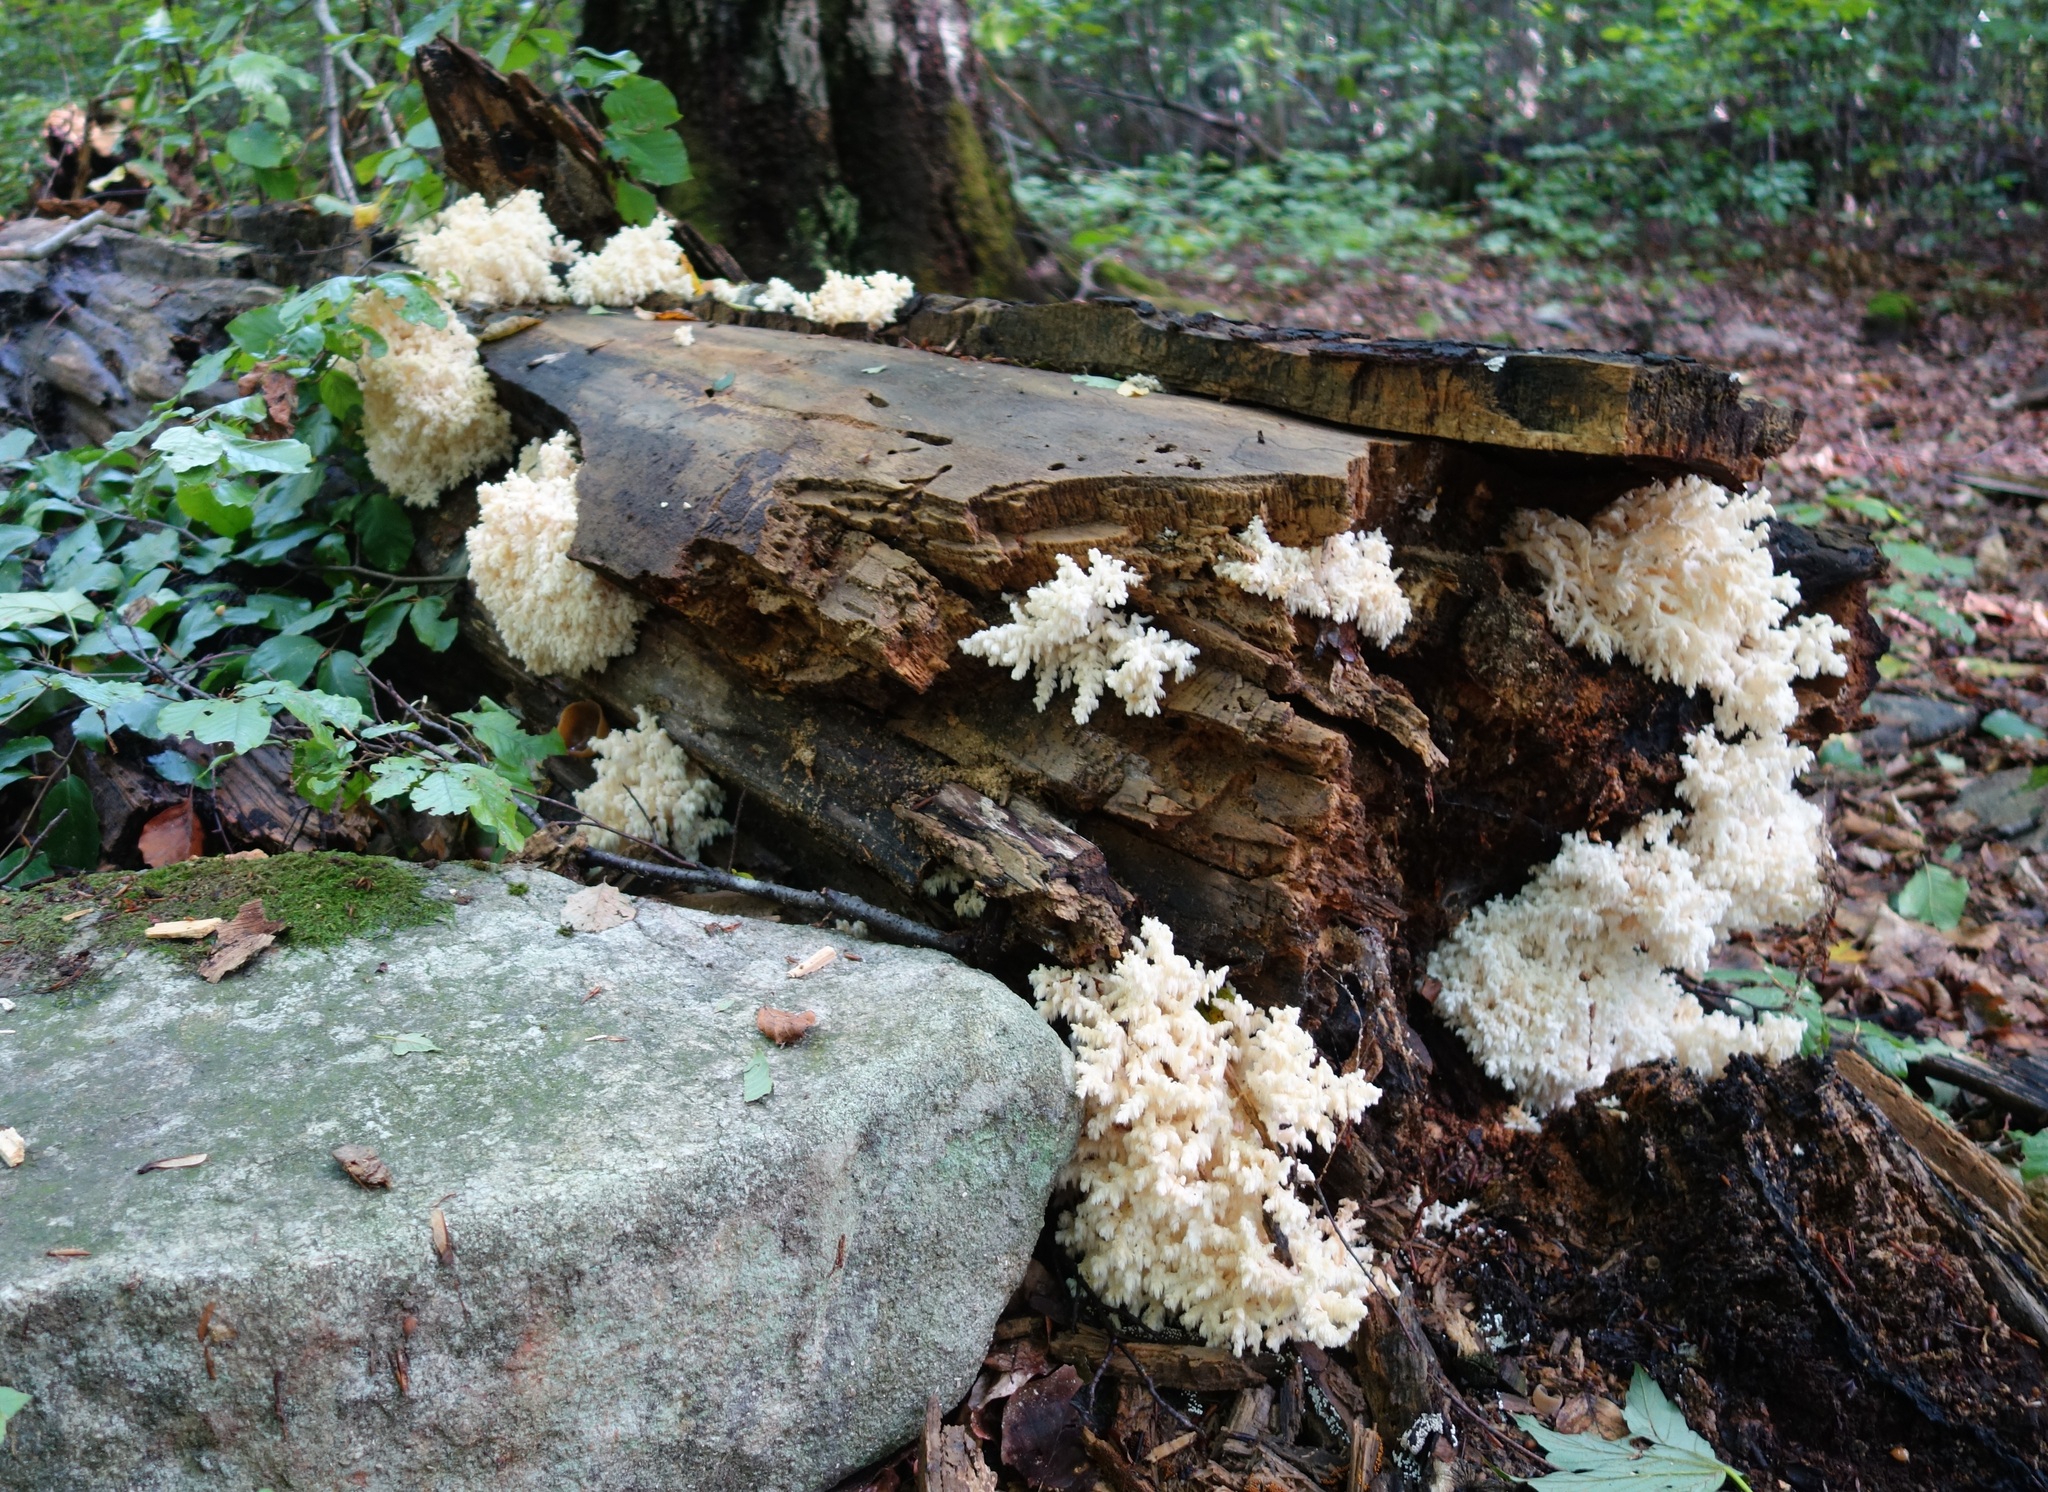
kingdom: Fungi
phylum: Basidiomycota
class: Agaricomycetes
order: Russulales
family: Hericiaceae
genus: Hericium
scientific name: Hericium coralloides
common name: Coral tooth
